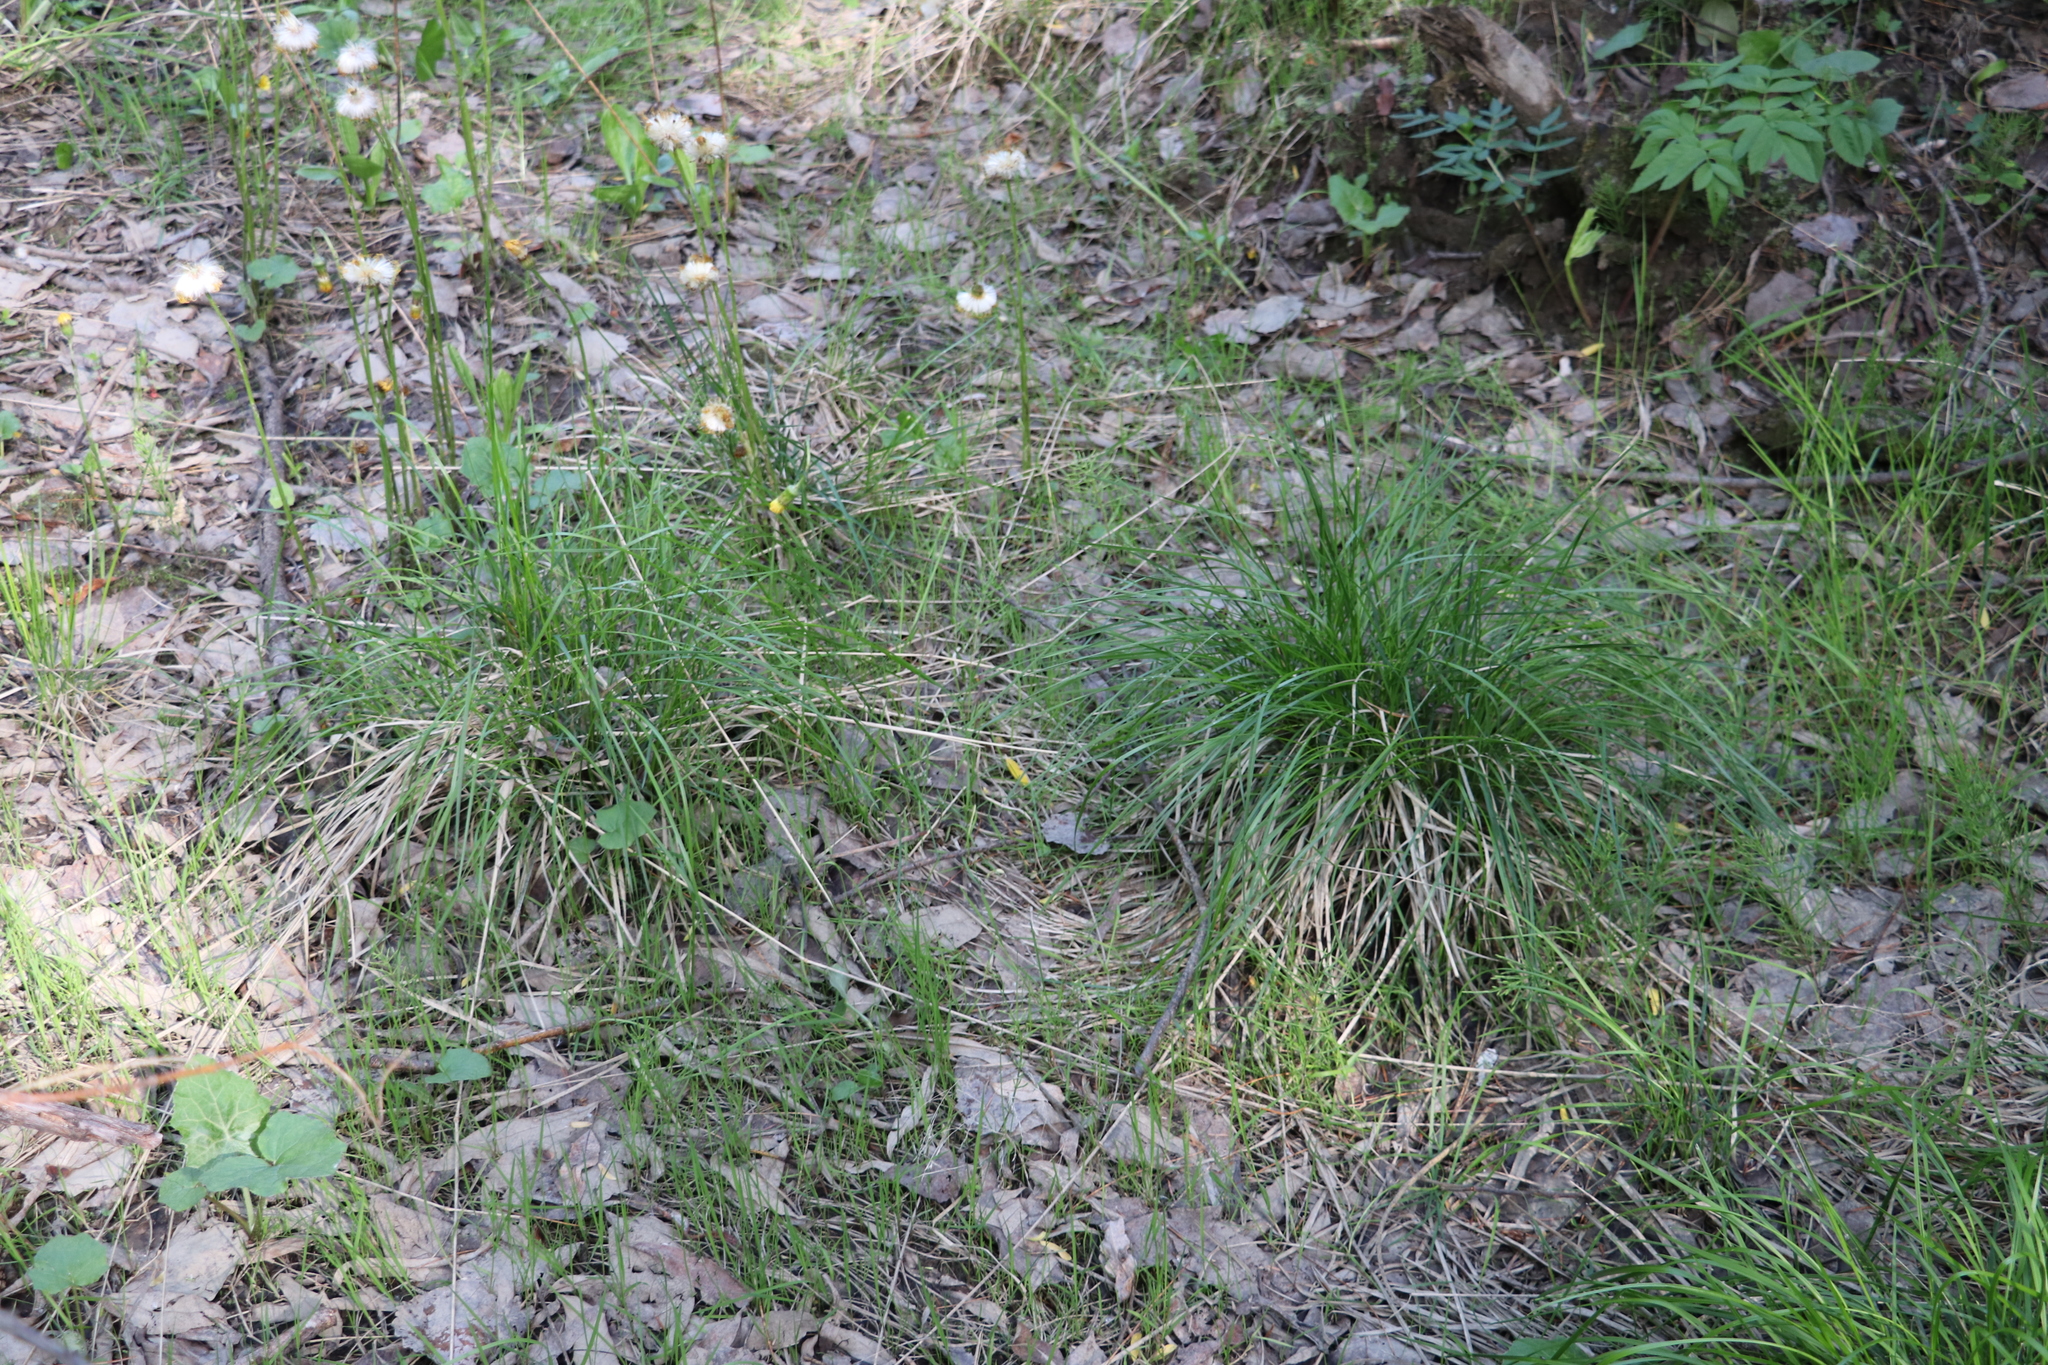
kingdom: Plantae
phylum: Tracheophyta
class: Liliopsida
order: Poales
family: Poaceae
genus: Deschampsia
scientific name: Deschampsia cespitosa
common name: Tufted hair-grass
